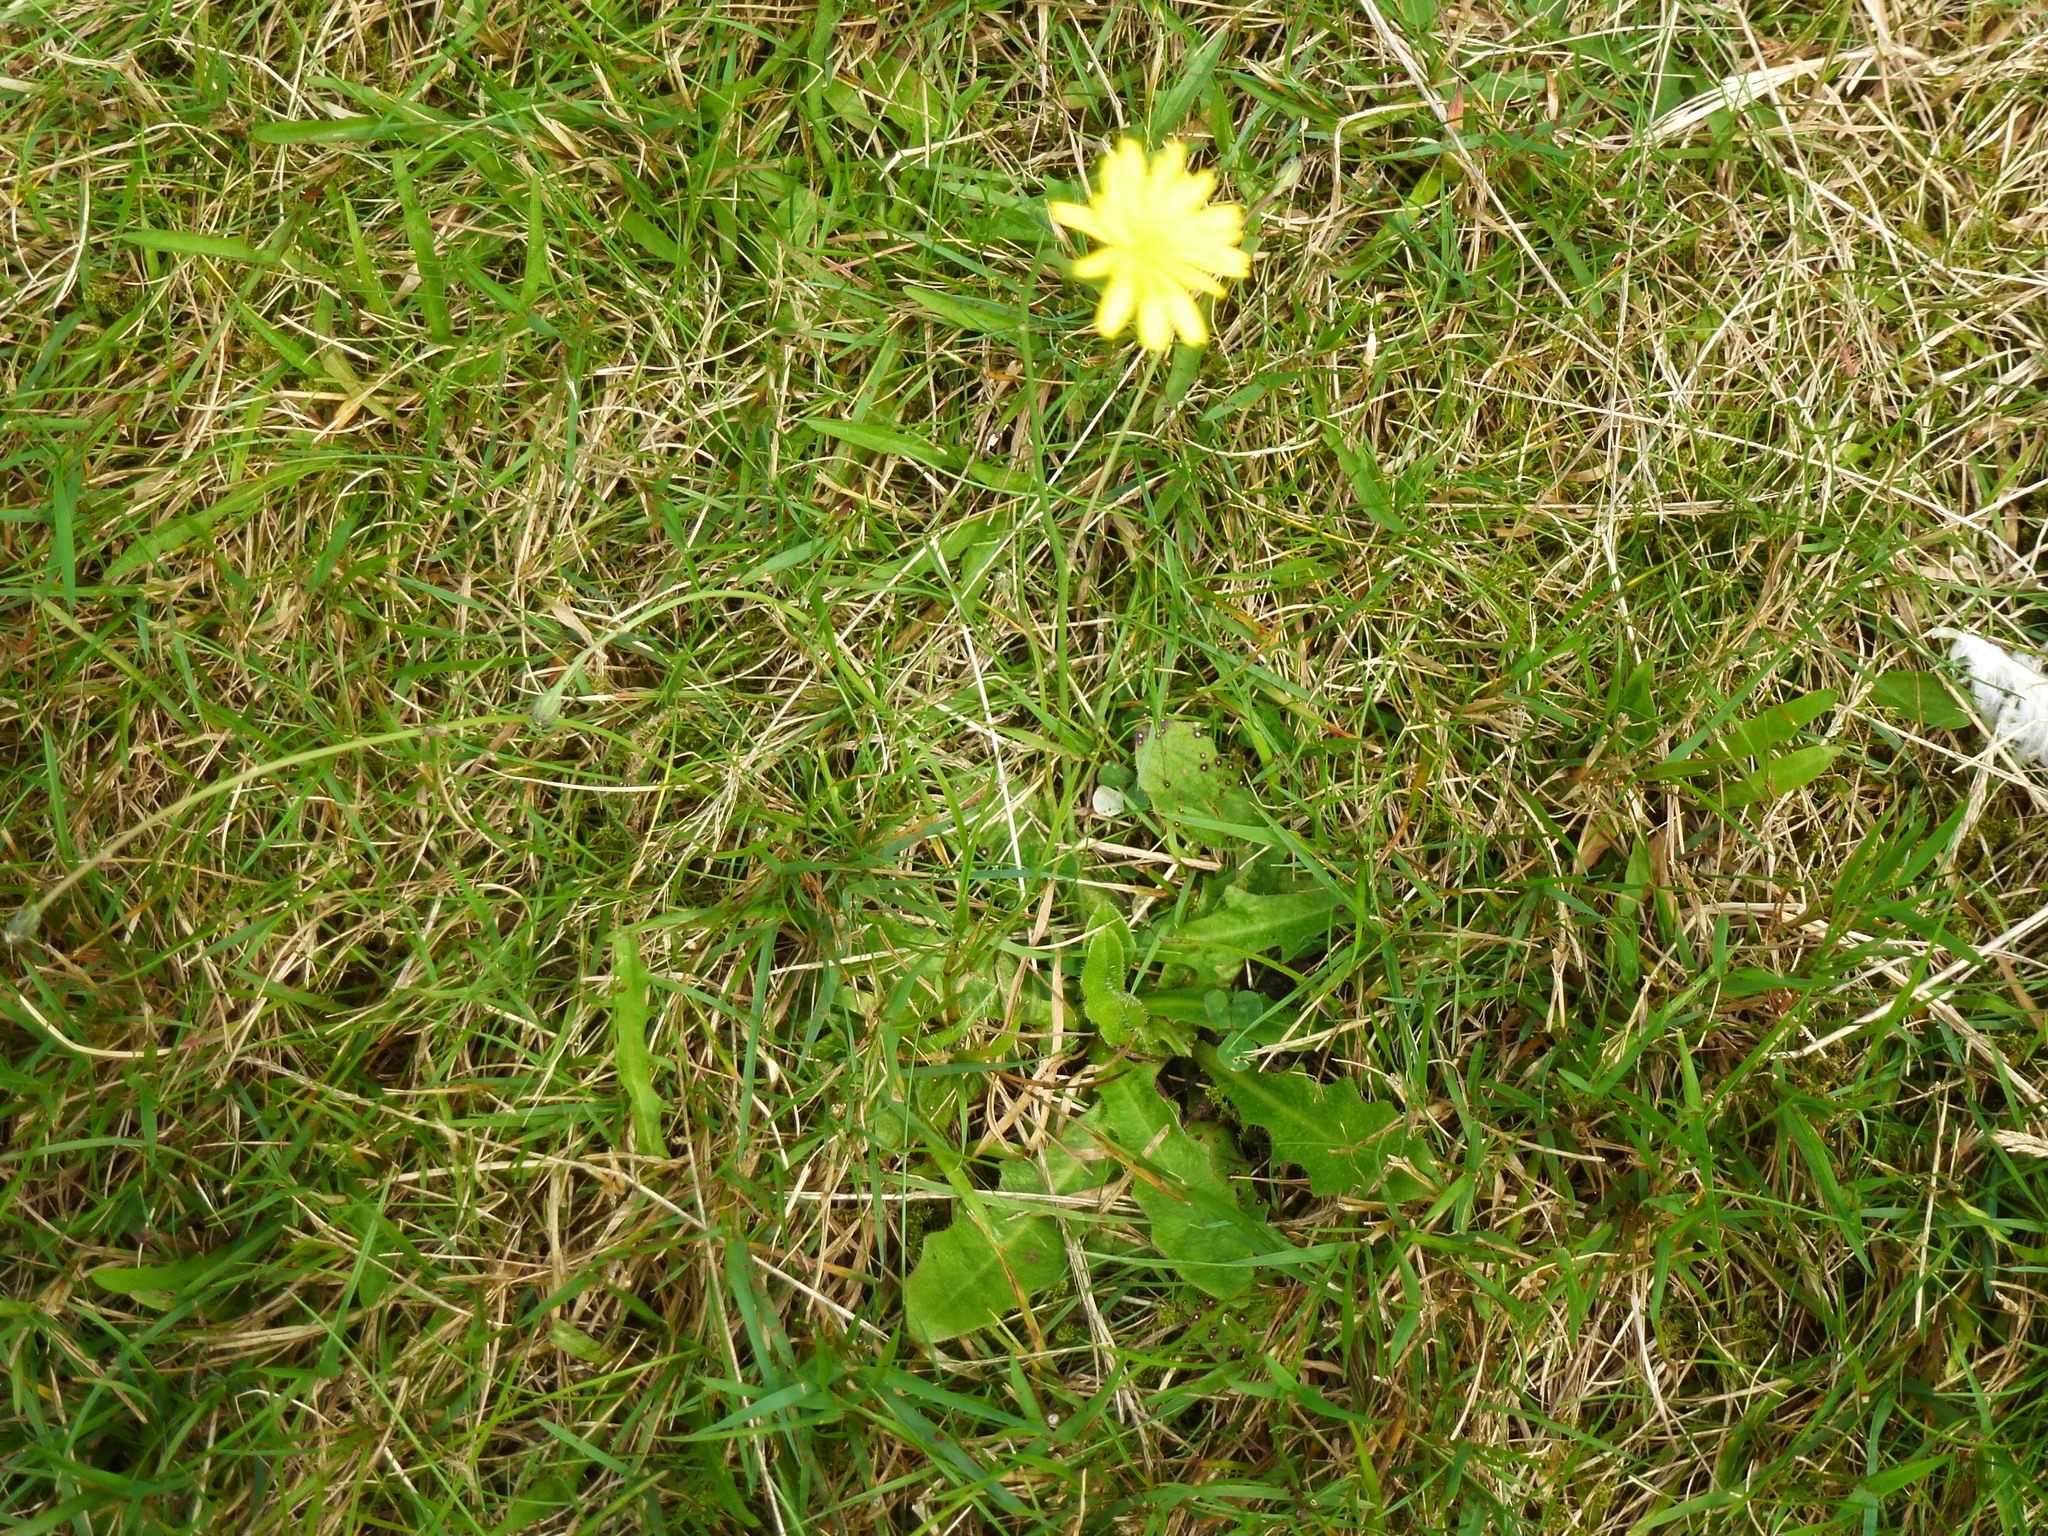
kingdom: Plantae
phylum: Tracheophyta
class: Magnoliopsida
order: Asterales
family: Asteraceae
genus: Hypochaeris
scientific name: Hypochaeris radicata
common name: Flatweed
